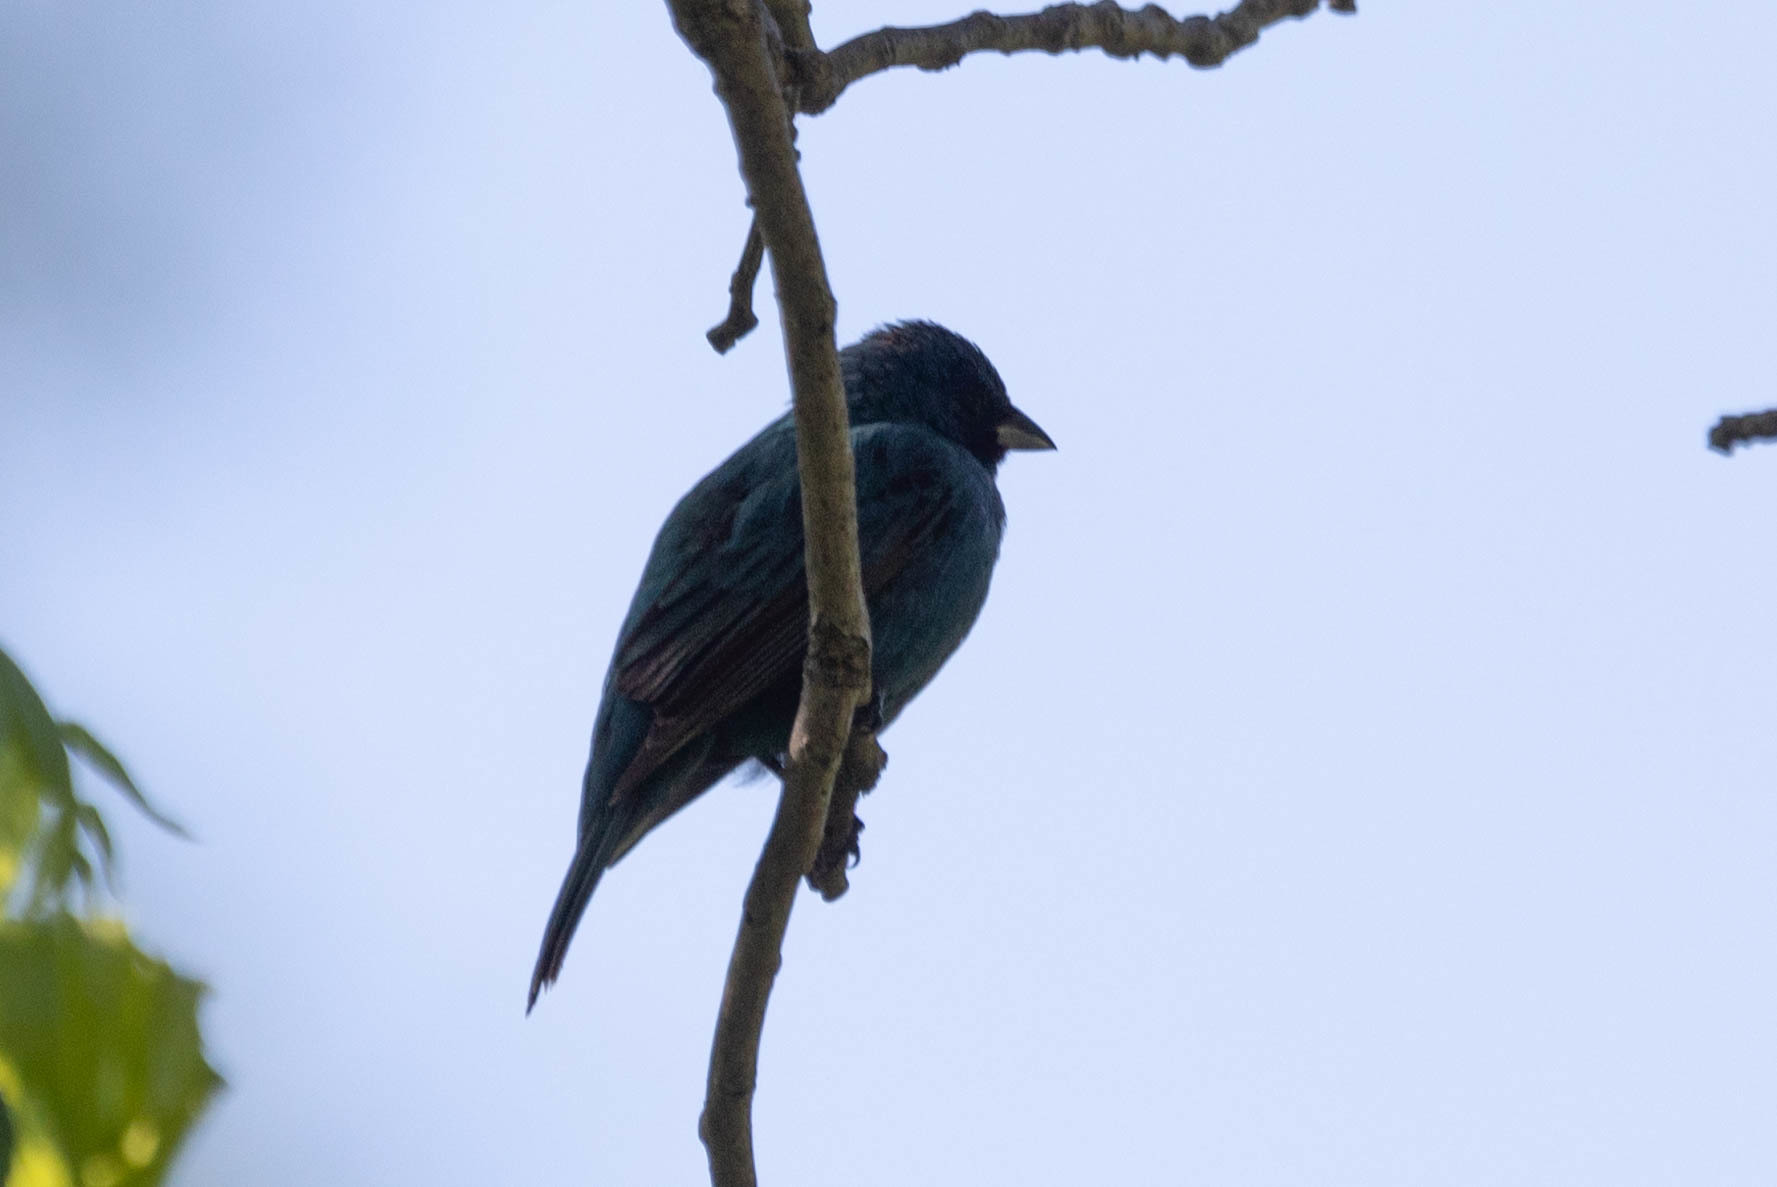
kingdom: Animalia
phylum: Chordata
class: Aves
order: Passeriformes
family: Cardinalidae
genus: Passerina
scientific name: Passerina cyanea
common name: Indigo bunting
